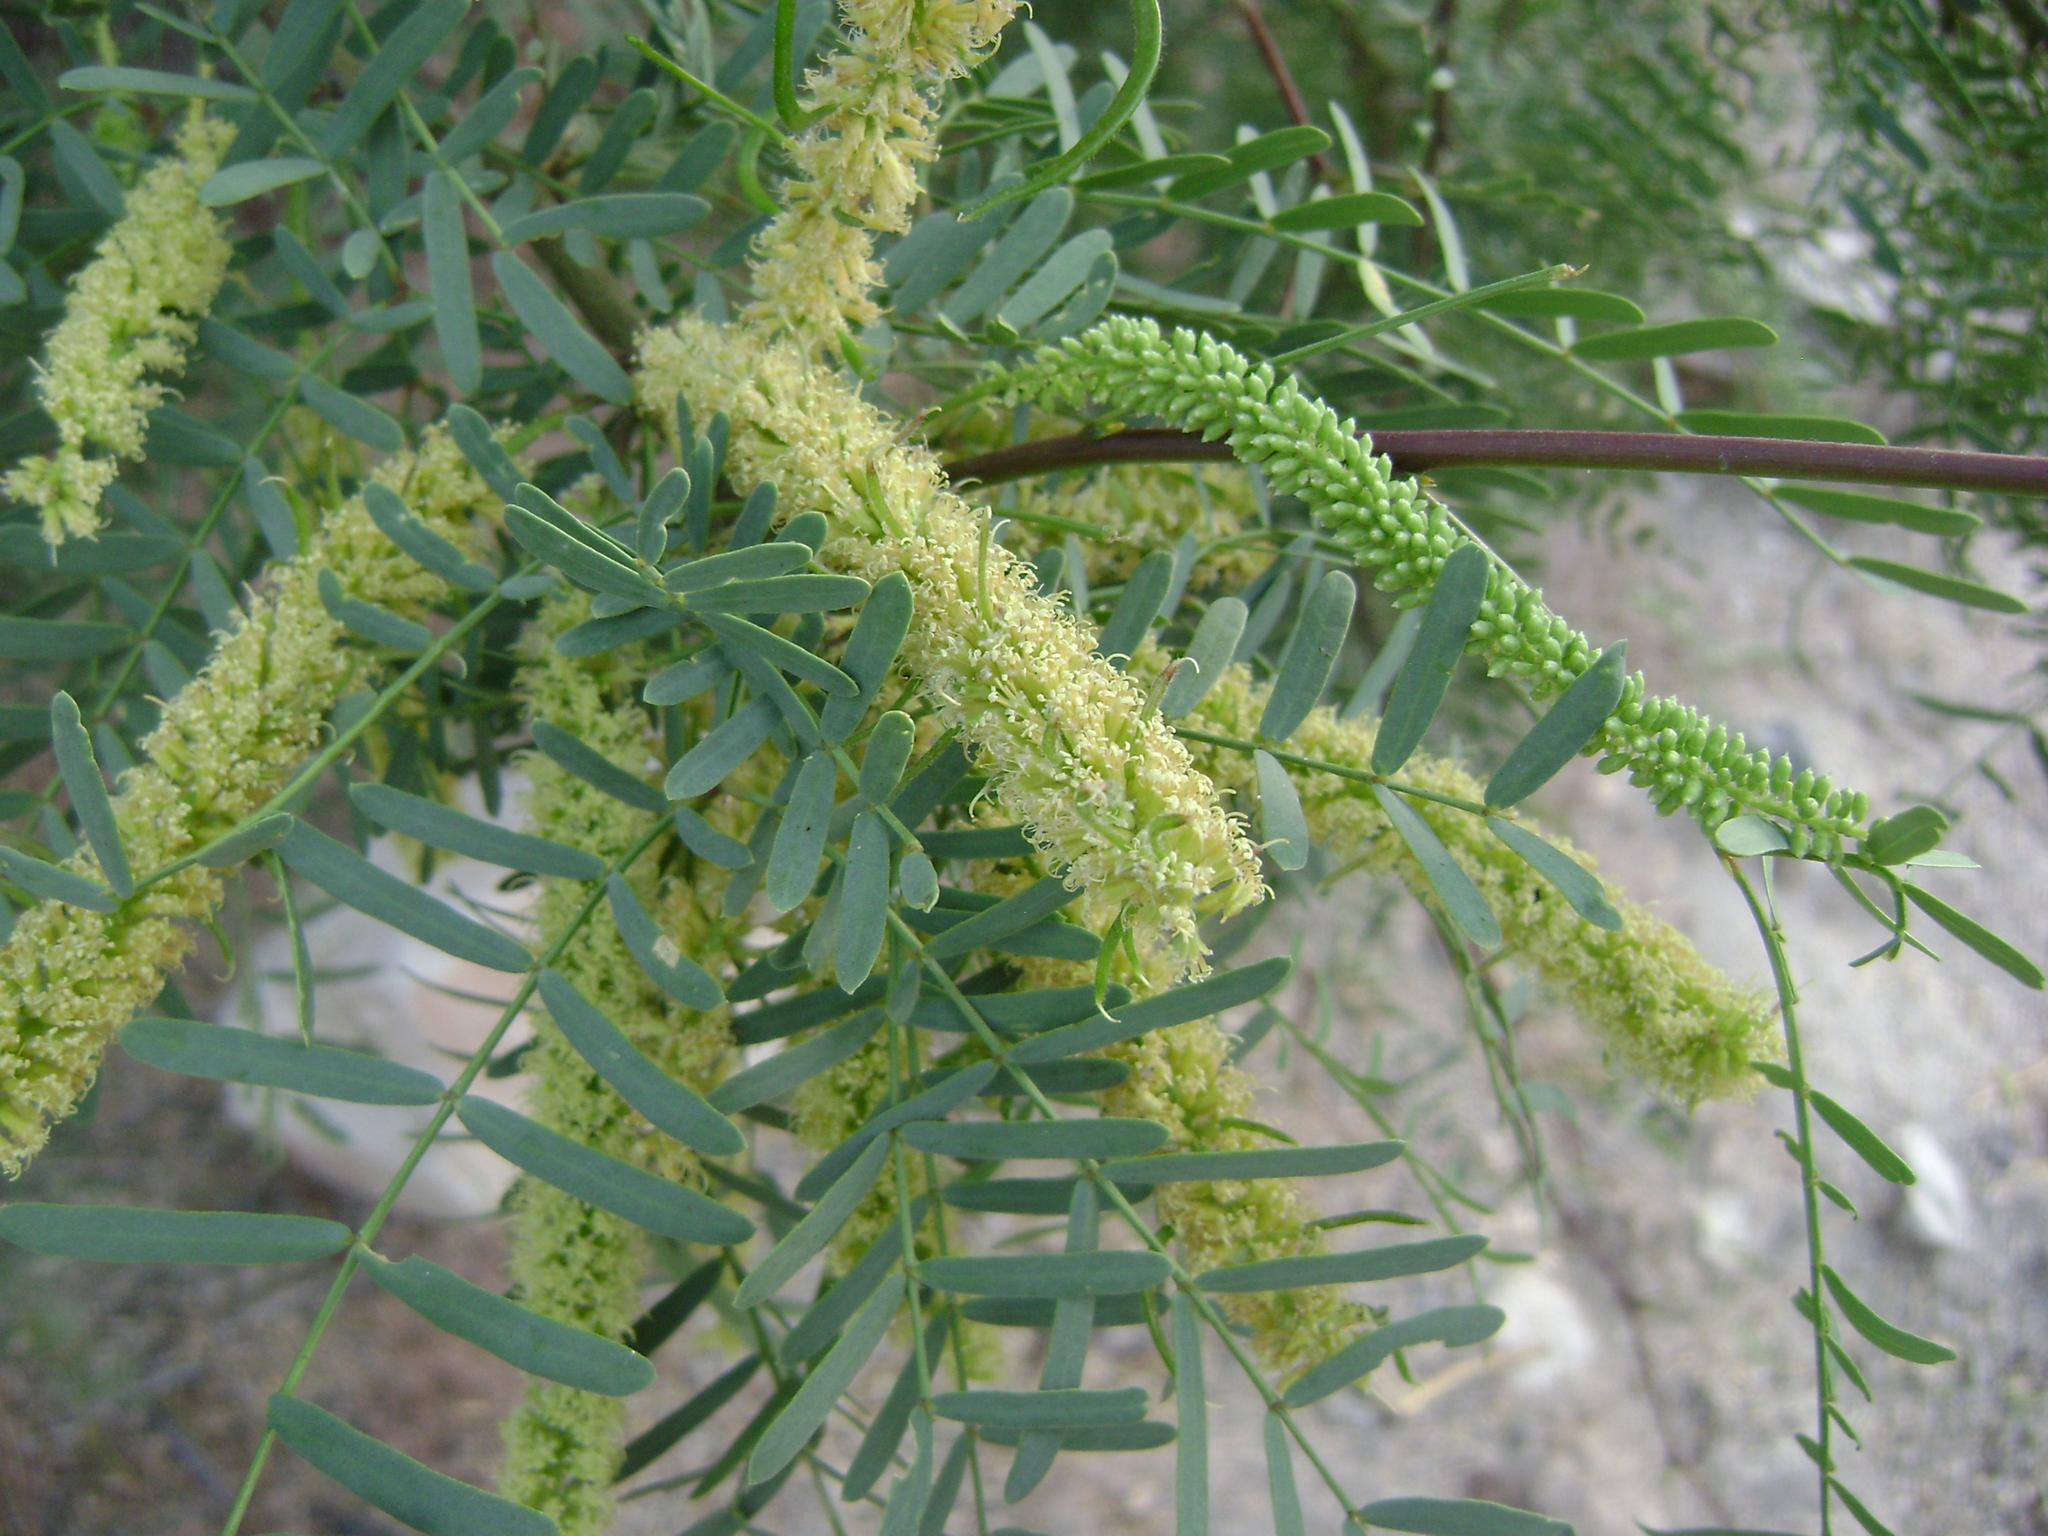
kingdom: Plantae
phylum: Tracheophyta
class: Magnoliopsida
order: Fabales
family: Fabaceae
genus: Prosopis
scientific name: Prosopis pubescens
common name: Screw-bean
